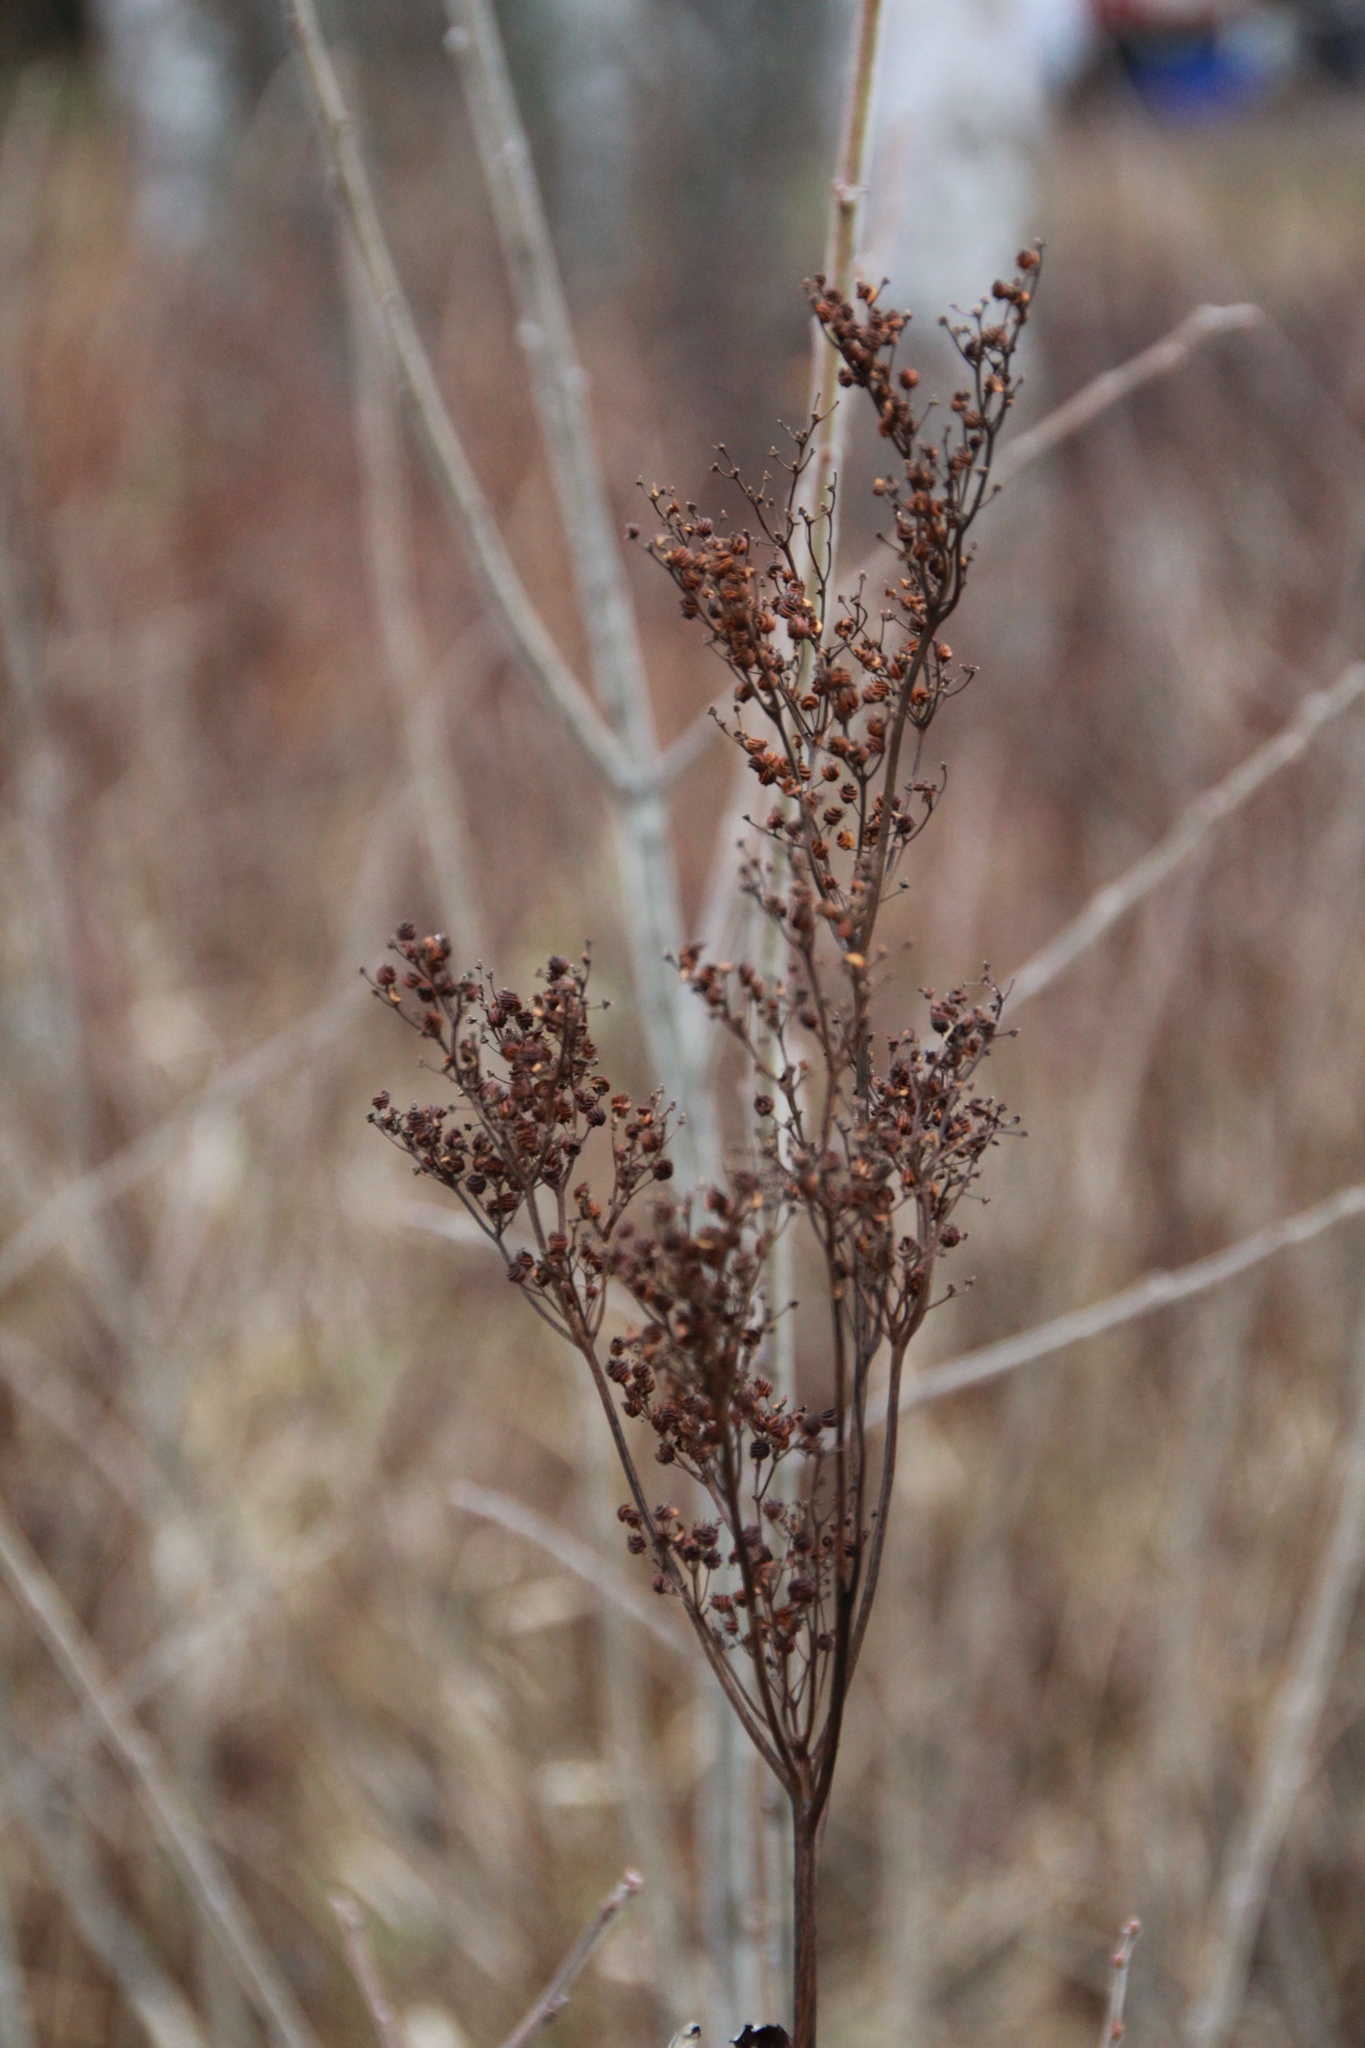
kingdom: Plantae
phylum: Tracheophyta
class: Magnoliopsida
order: Rosales
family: Rosaceae
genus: Filipendula
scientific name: Filipendula ulmaria
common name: Meadowsweet
